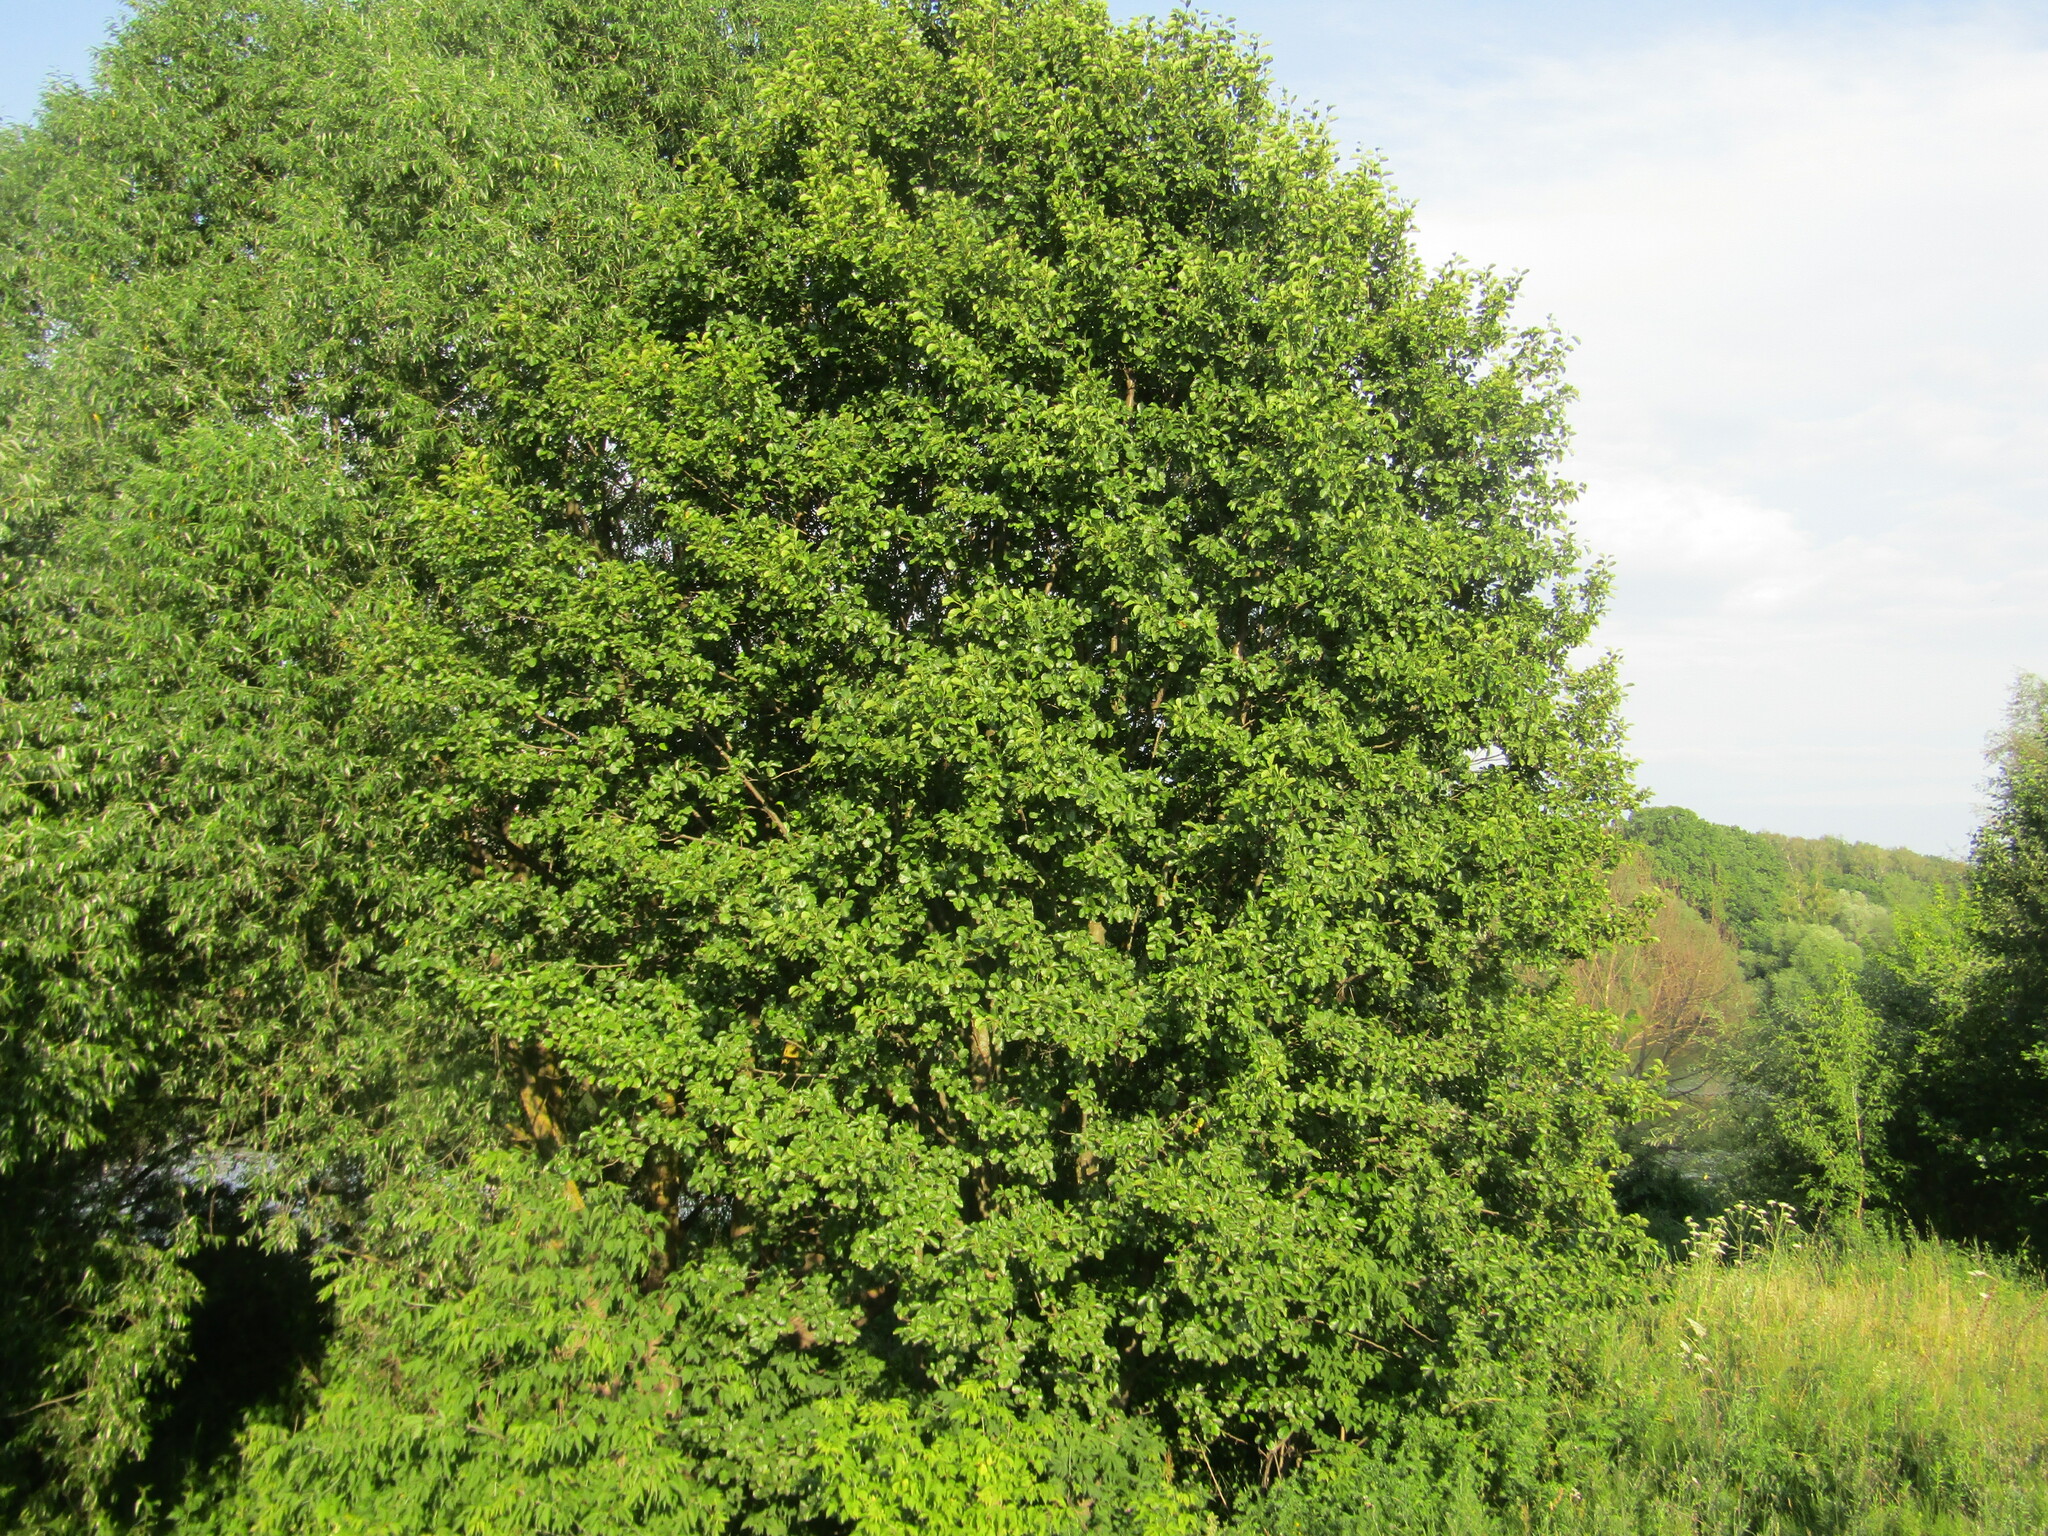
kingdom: Plantae
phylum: Tracheophyta
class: Magnoliopsida
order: Fagales
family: Betulaceae
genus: Alnus
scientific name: Alnus glutinosa
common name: Black alder
